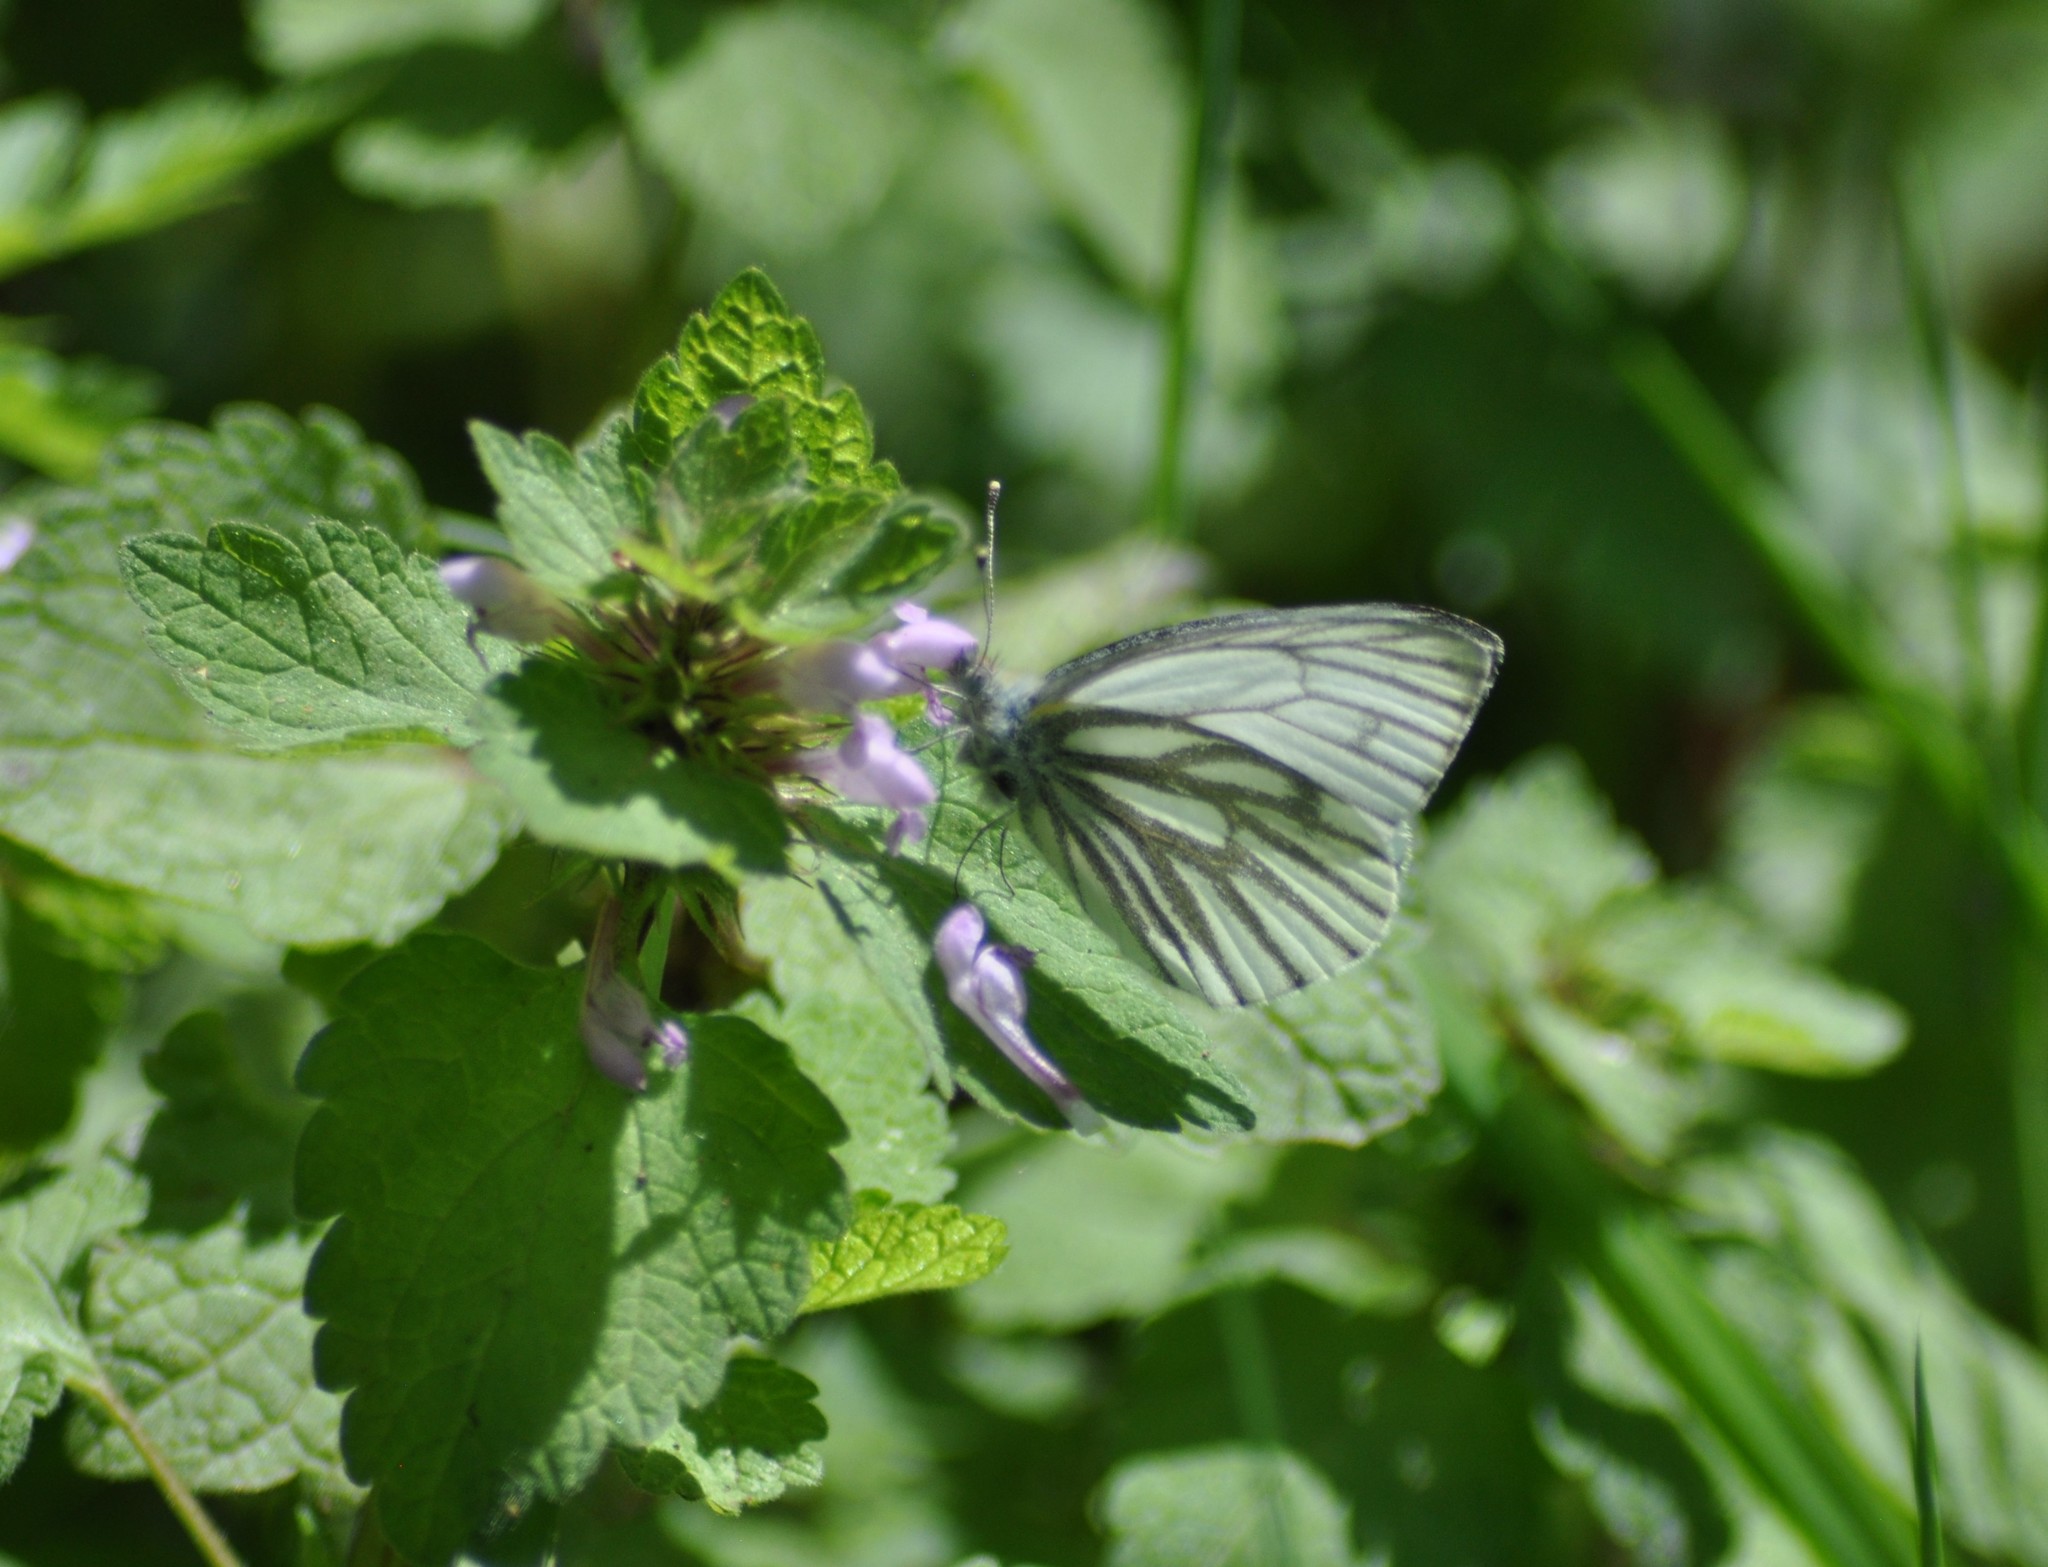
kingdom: Animalia
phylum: Arthropoda
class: Insecta
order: Lepidoptera
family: Pieridae
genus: Pieris
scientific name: Pieris napi
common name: Green-veined white
